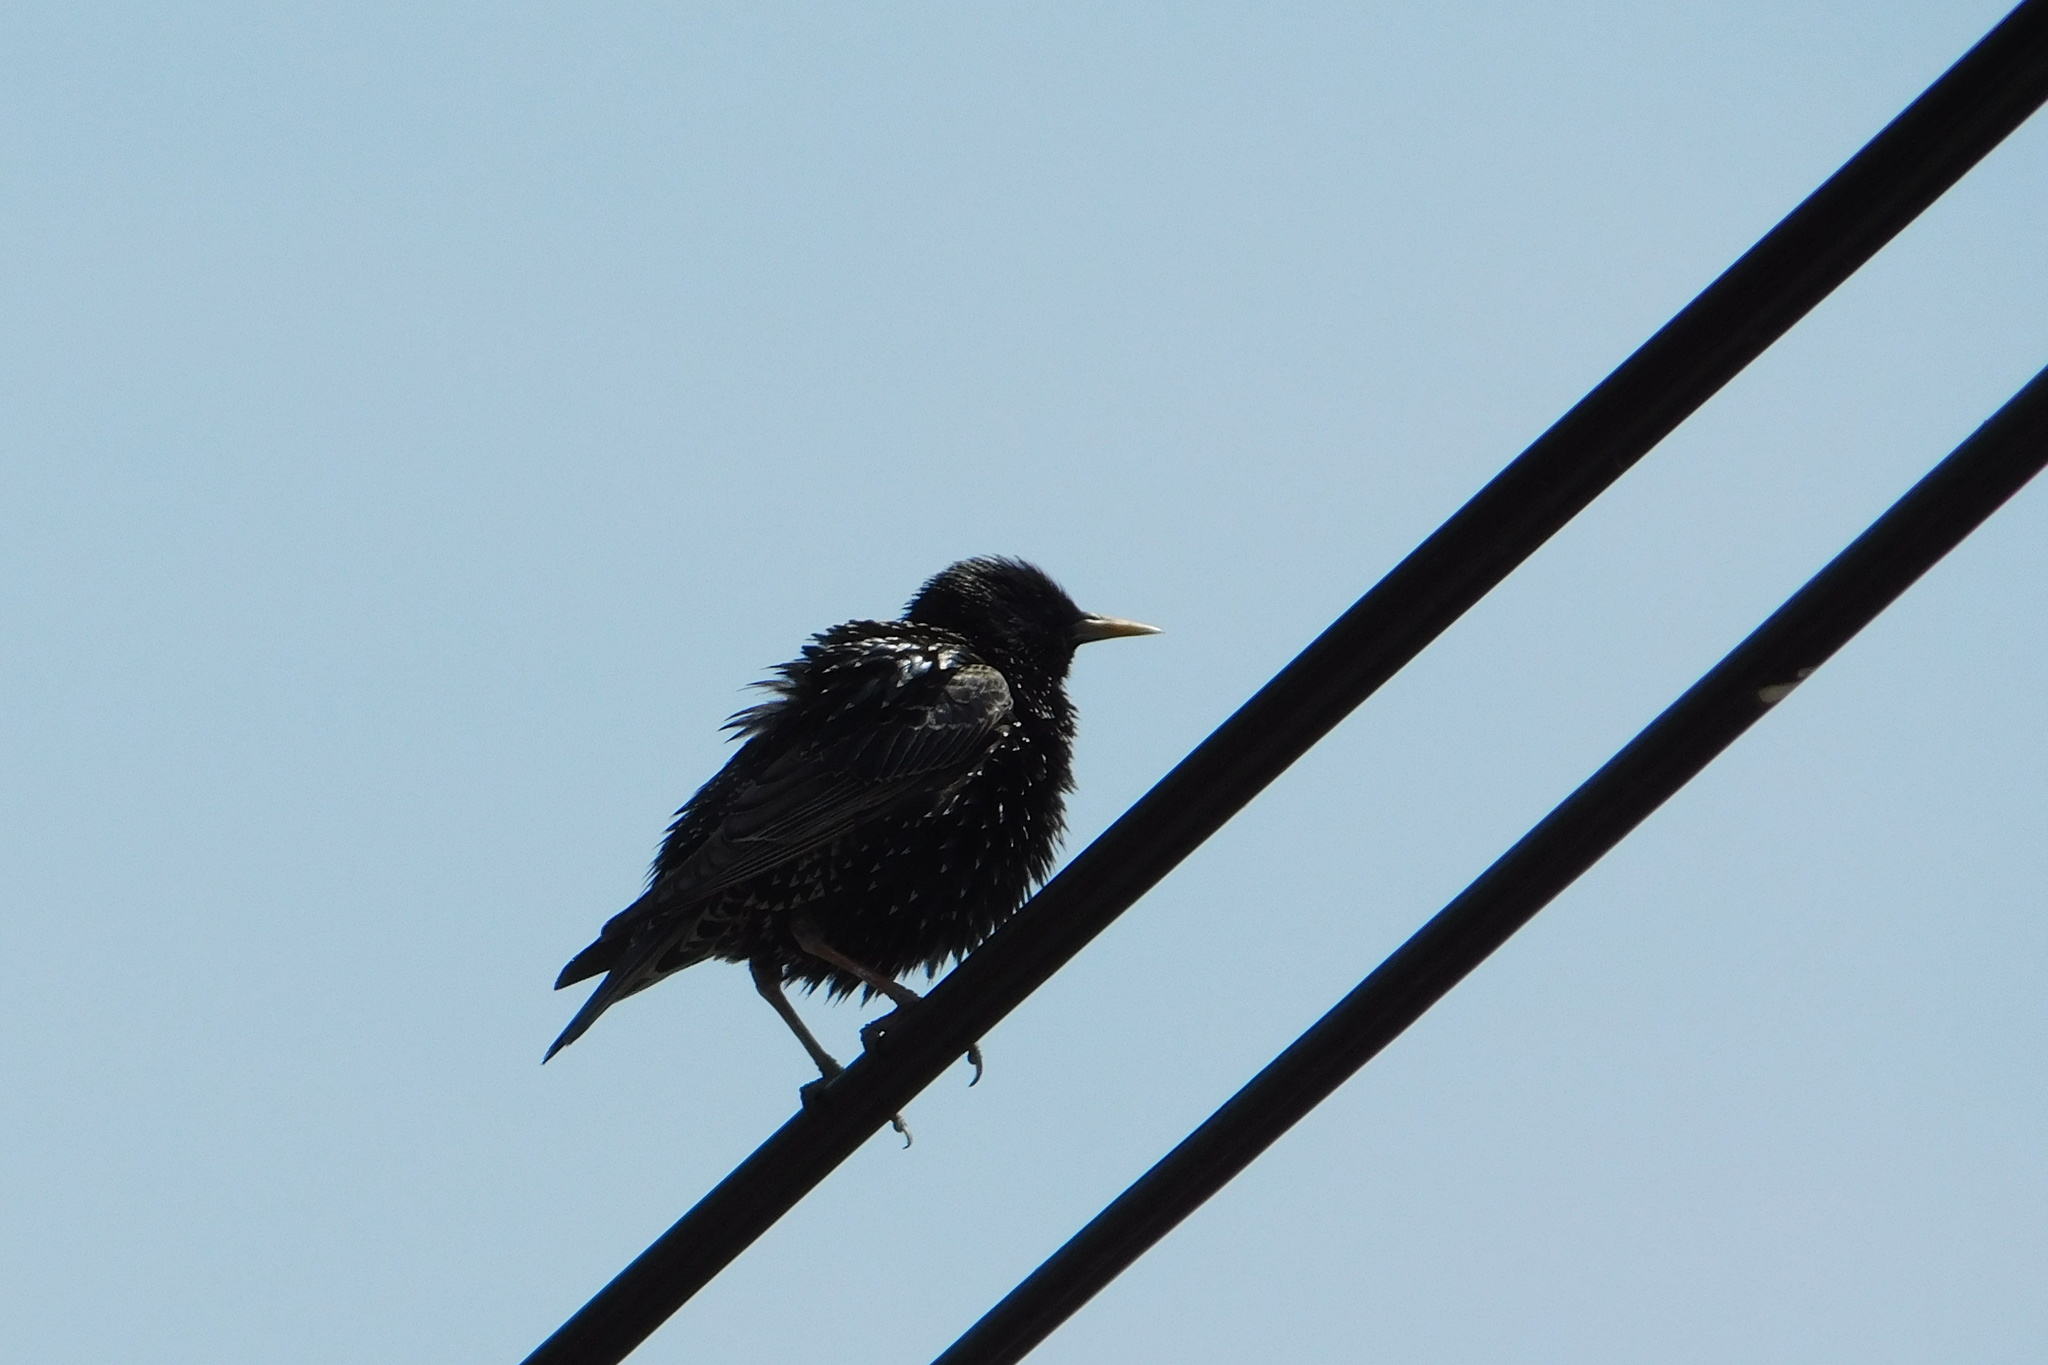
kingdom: Animalia
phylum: Chordata
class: Aves
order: Passeriformes
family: Sturnidae
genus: Sturnus
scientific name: Sturnus vulgaris
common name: Common starling
